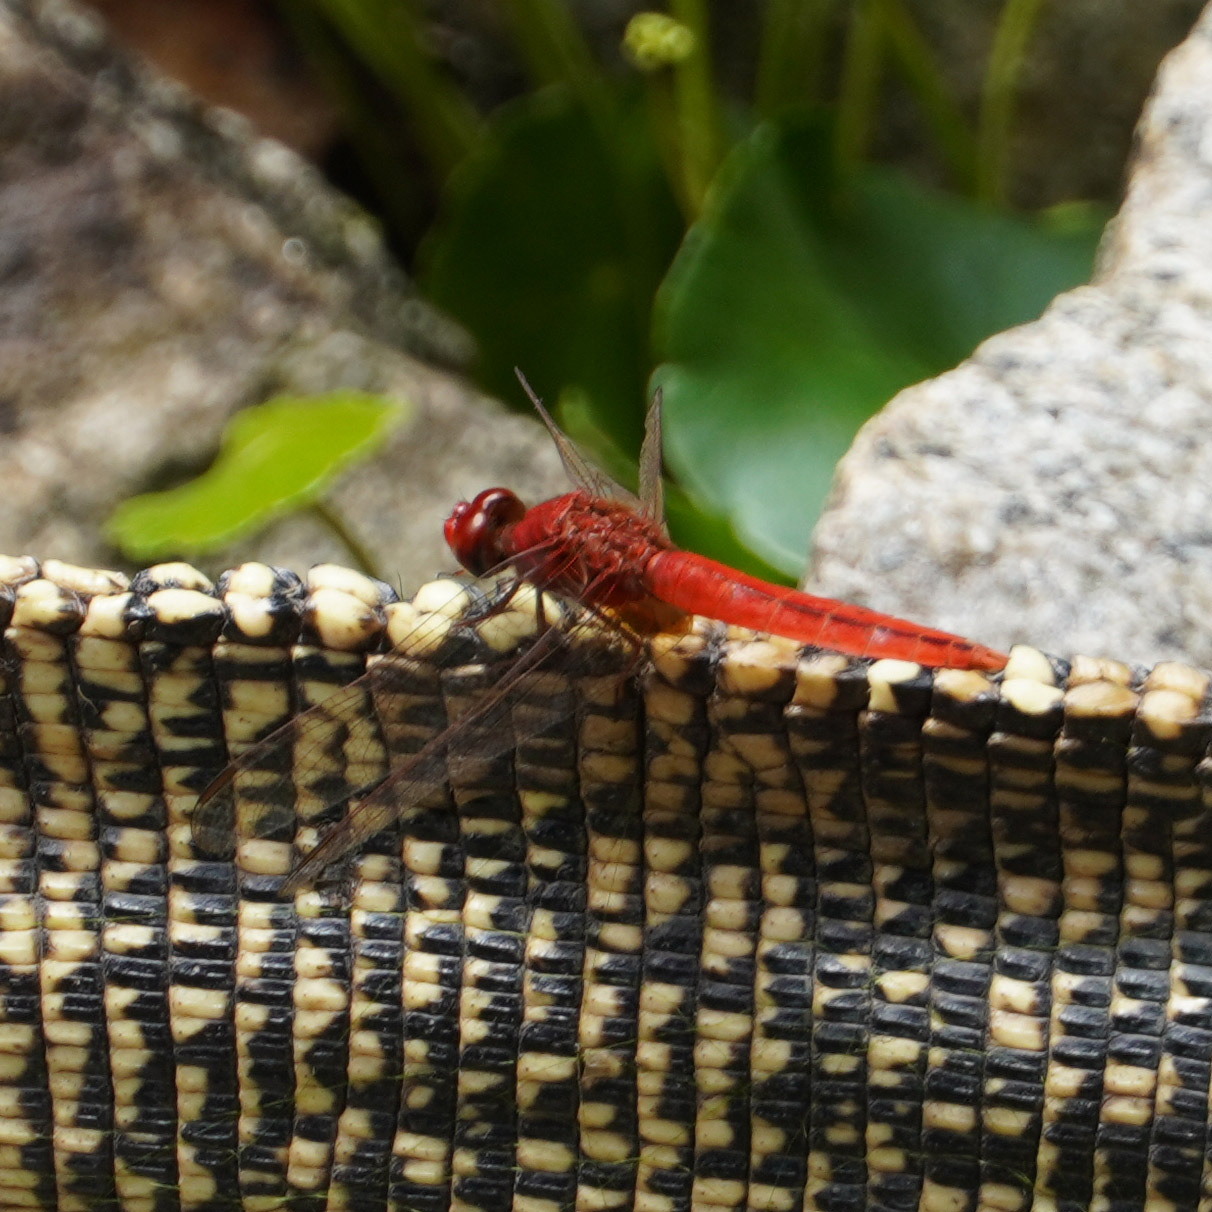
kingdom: Animalia
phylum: Arthropoda
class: Insecta
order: Odonata
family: Libellulidae
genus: Crocothemis
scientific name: Crocothemis servilia
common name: Scarlet skimmer
